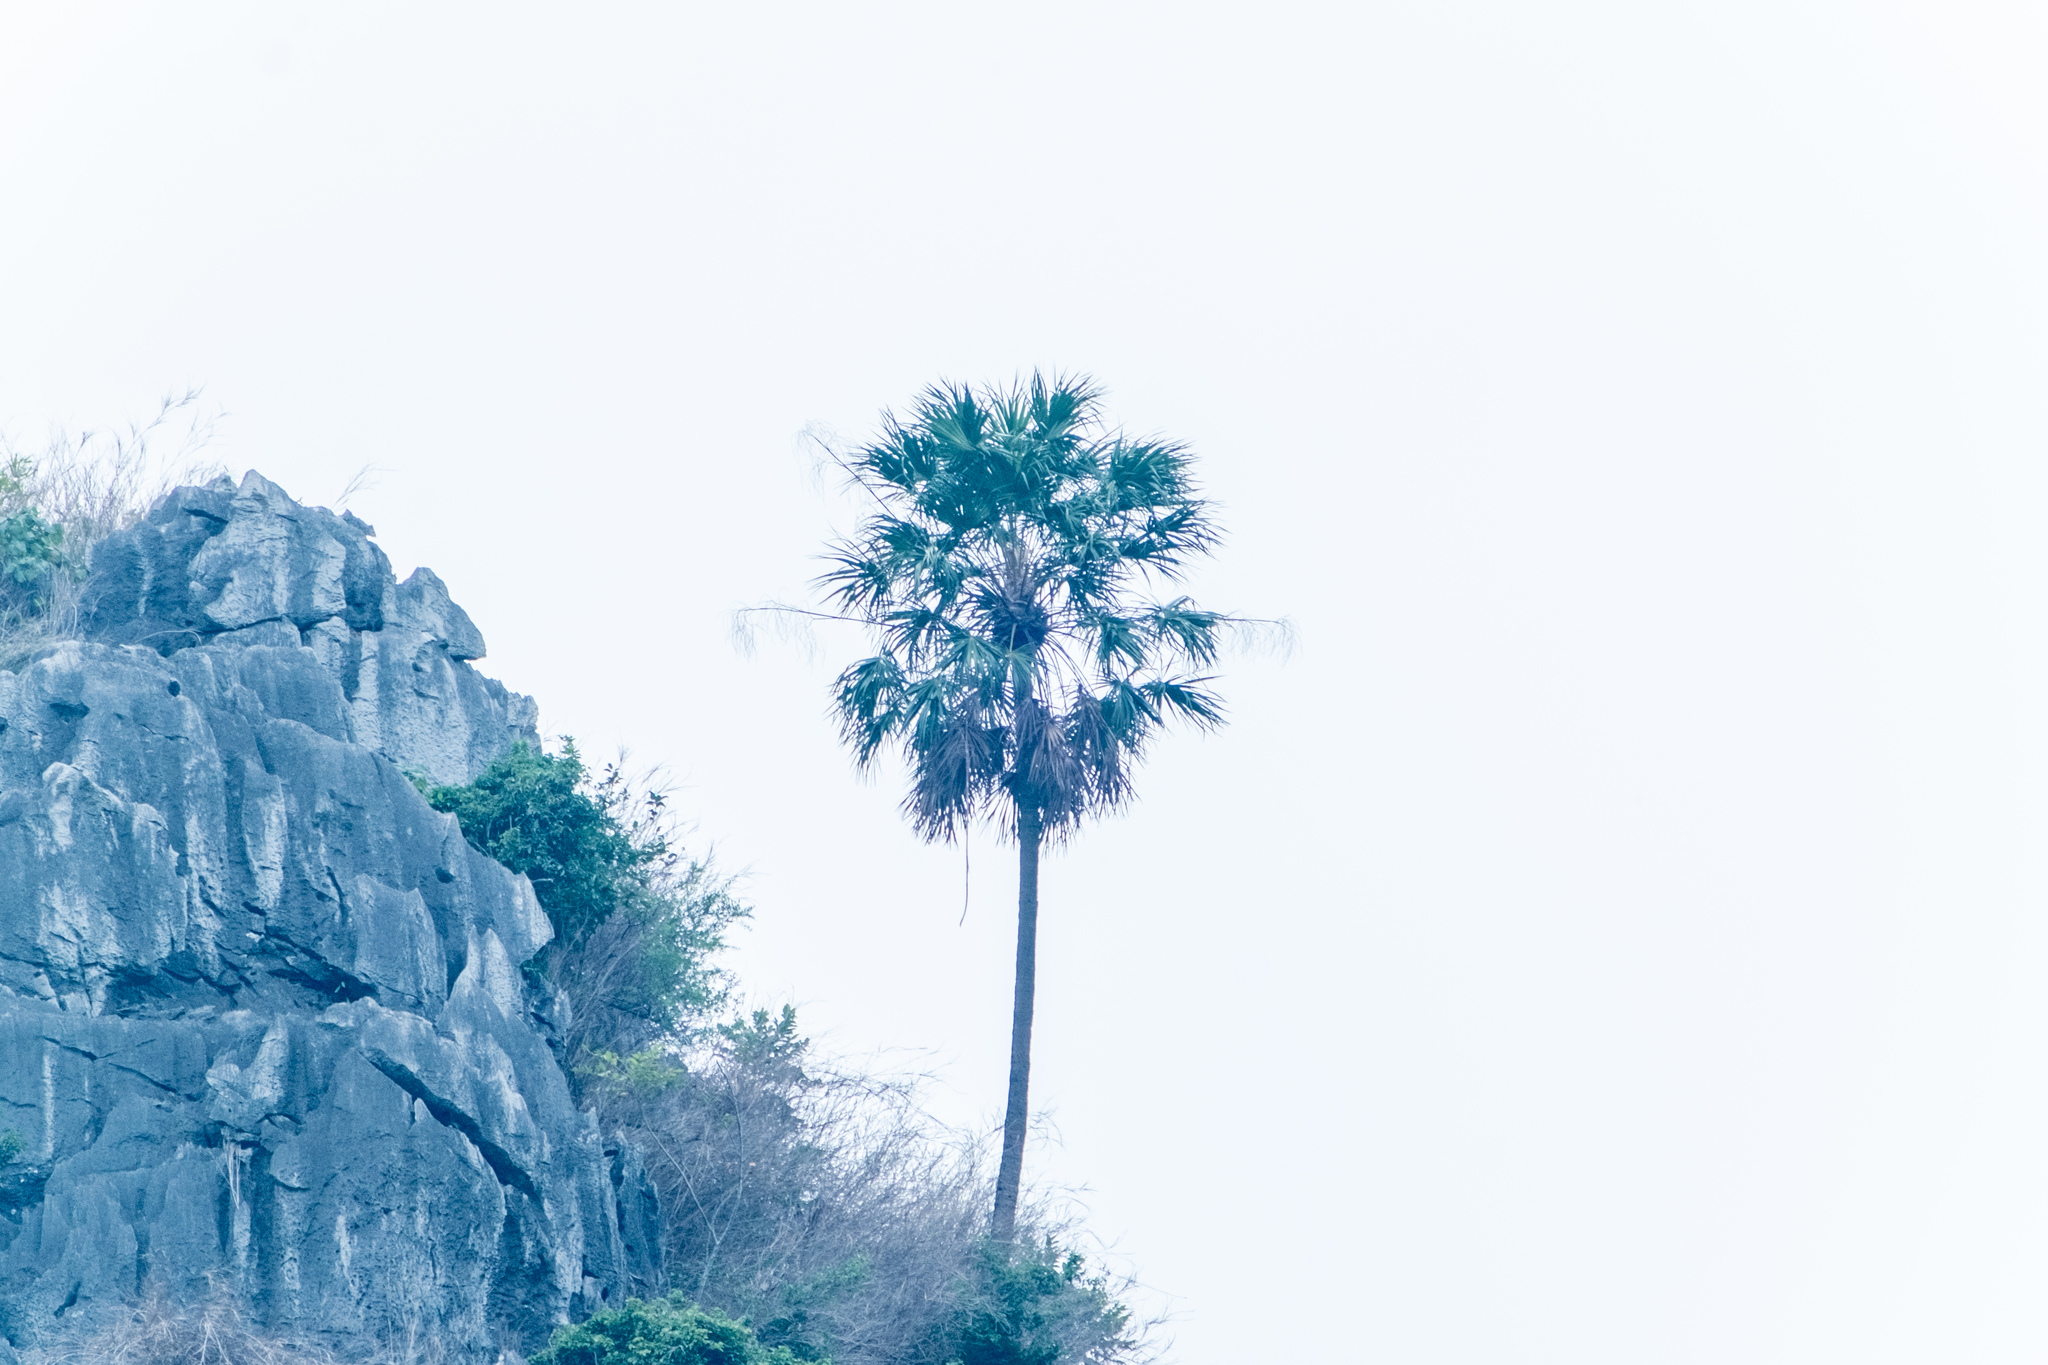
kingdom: Plantae
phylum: Tracheophyta
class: Liliopsida
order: Arecales
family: Arecaceae
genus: Livistona
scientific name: Livistona halongensis
